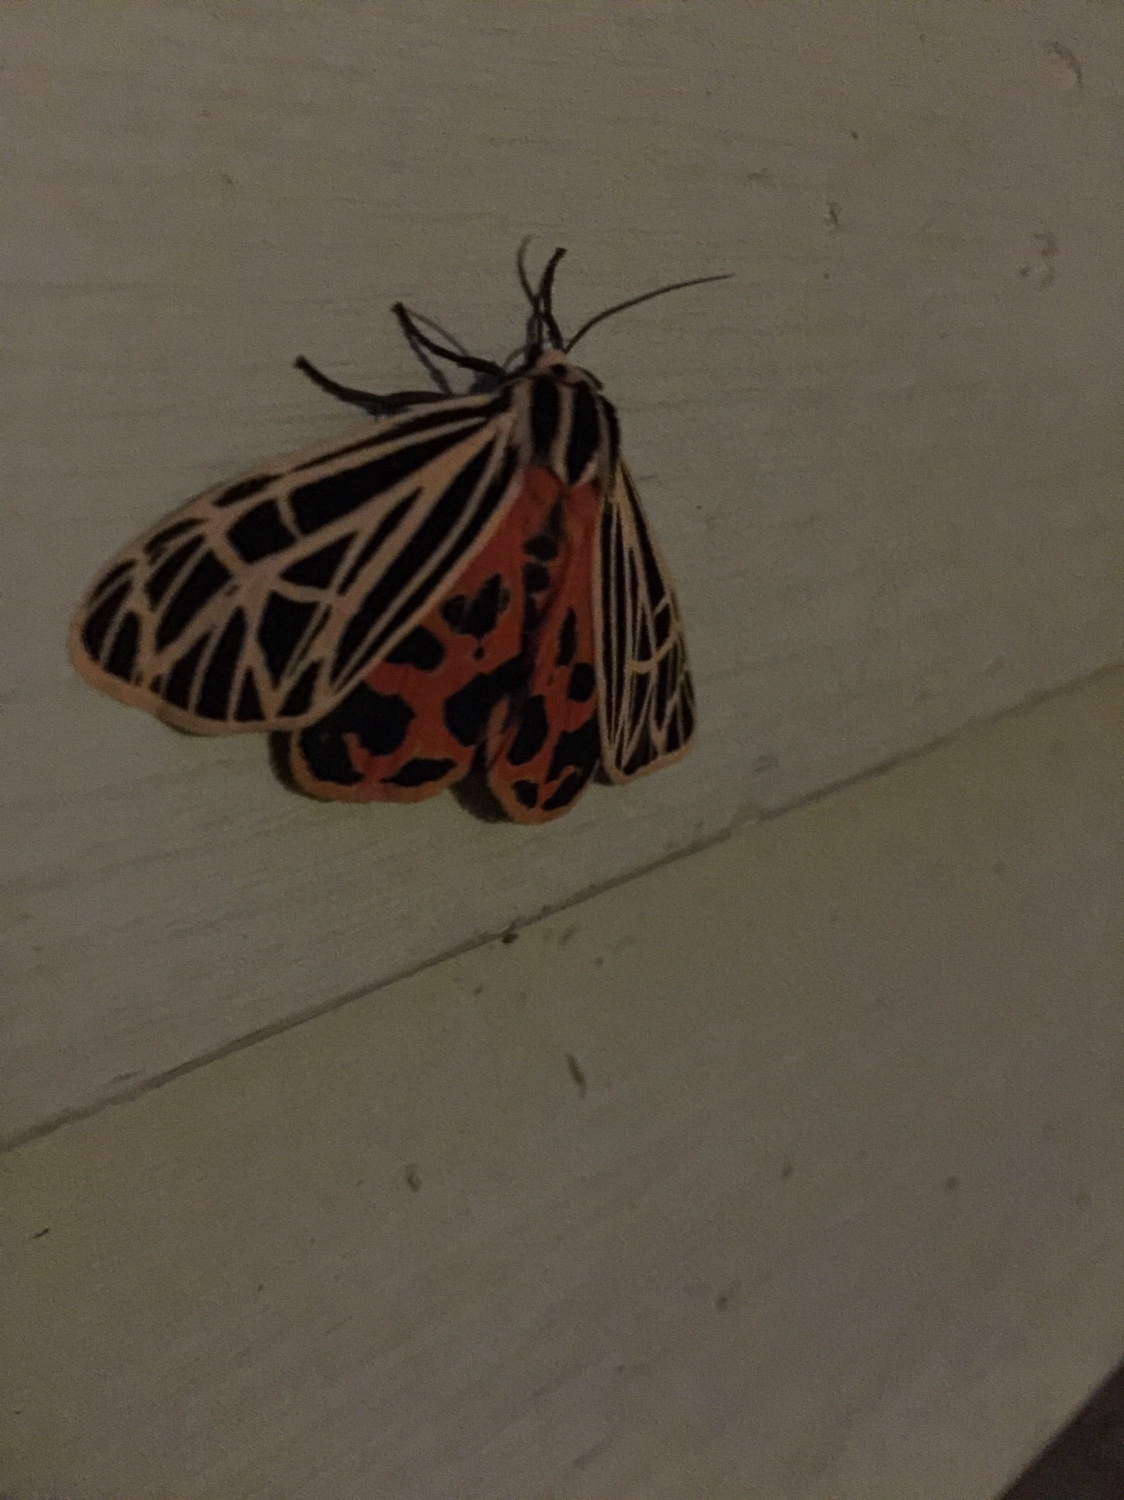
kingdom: Animalia
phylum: Arthropoda
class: Insecta
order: Lepidoptera
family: Erebidae
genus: Grammia
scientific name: Grammia virgo
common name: Virgin tiger moth
